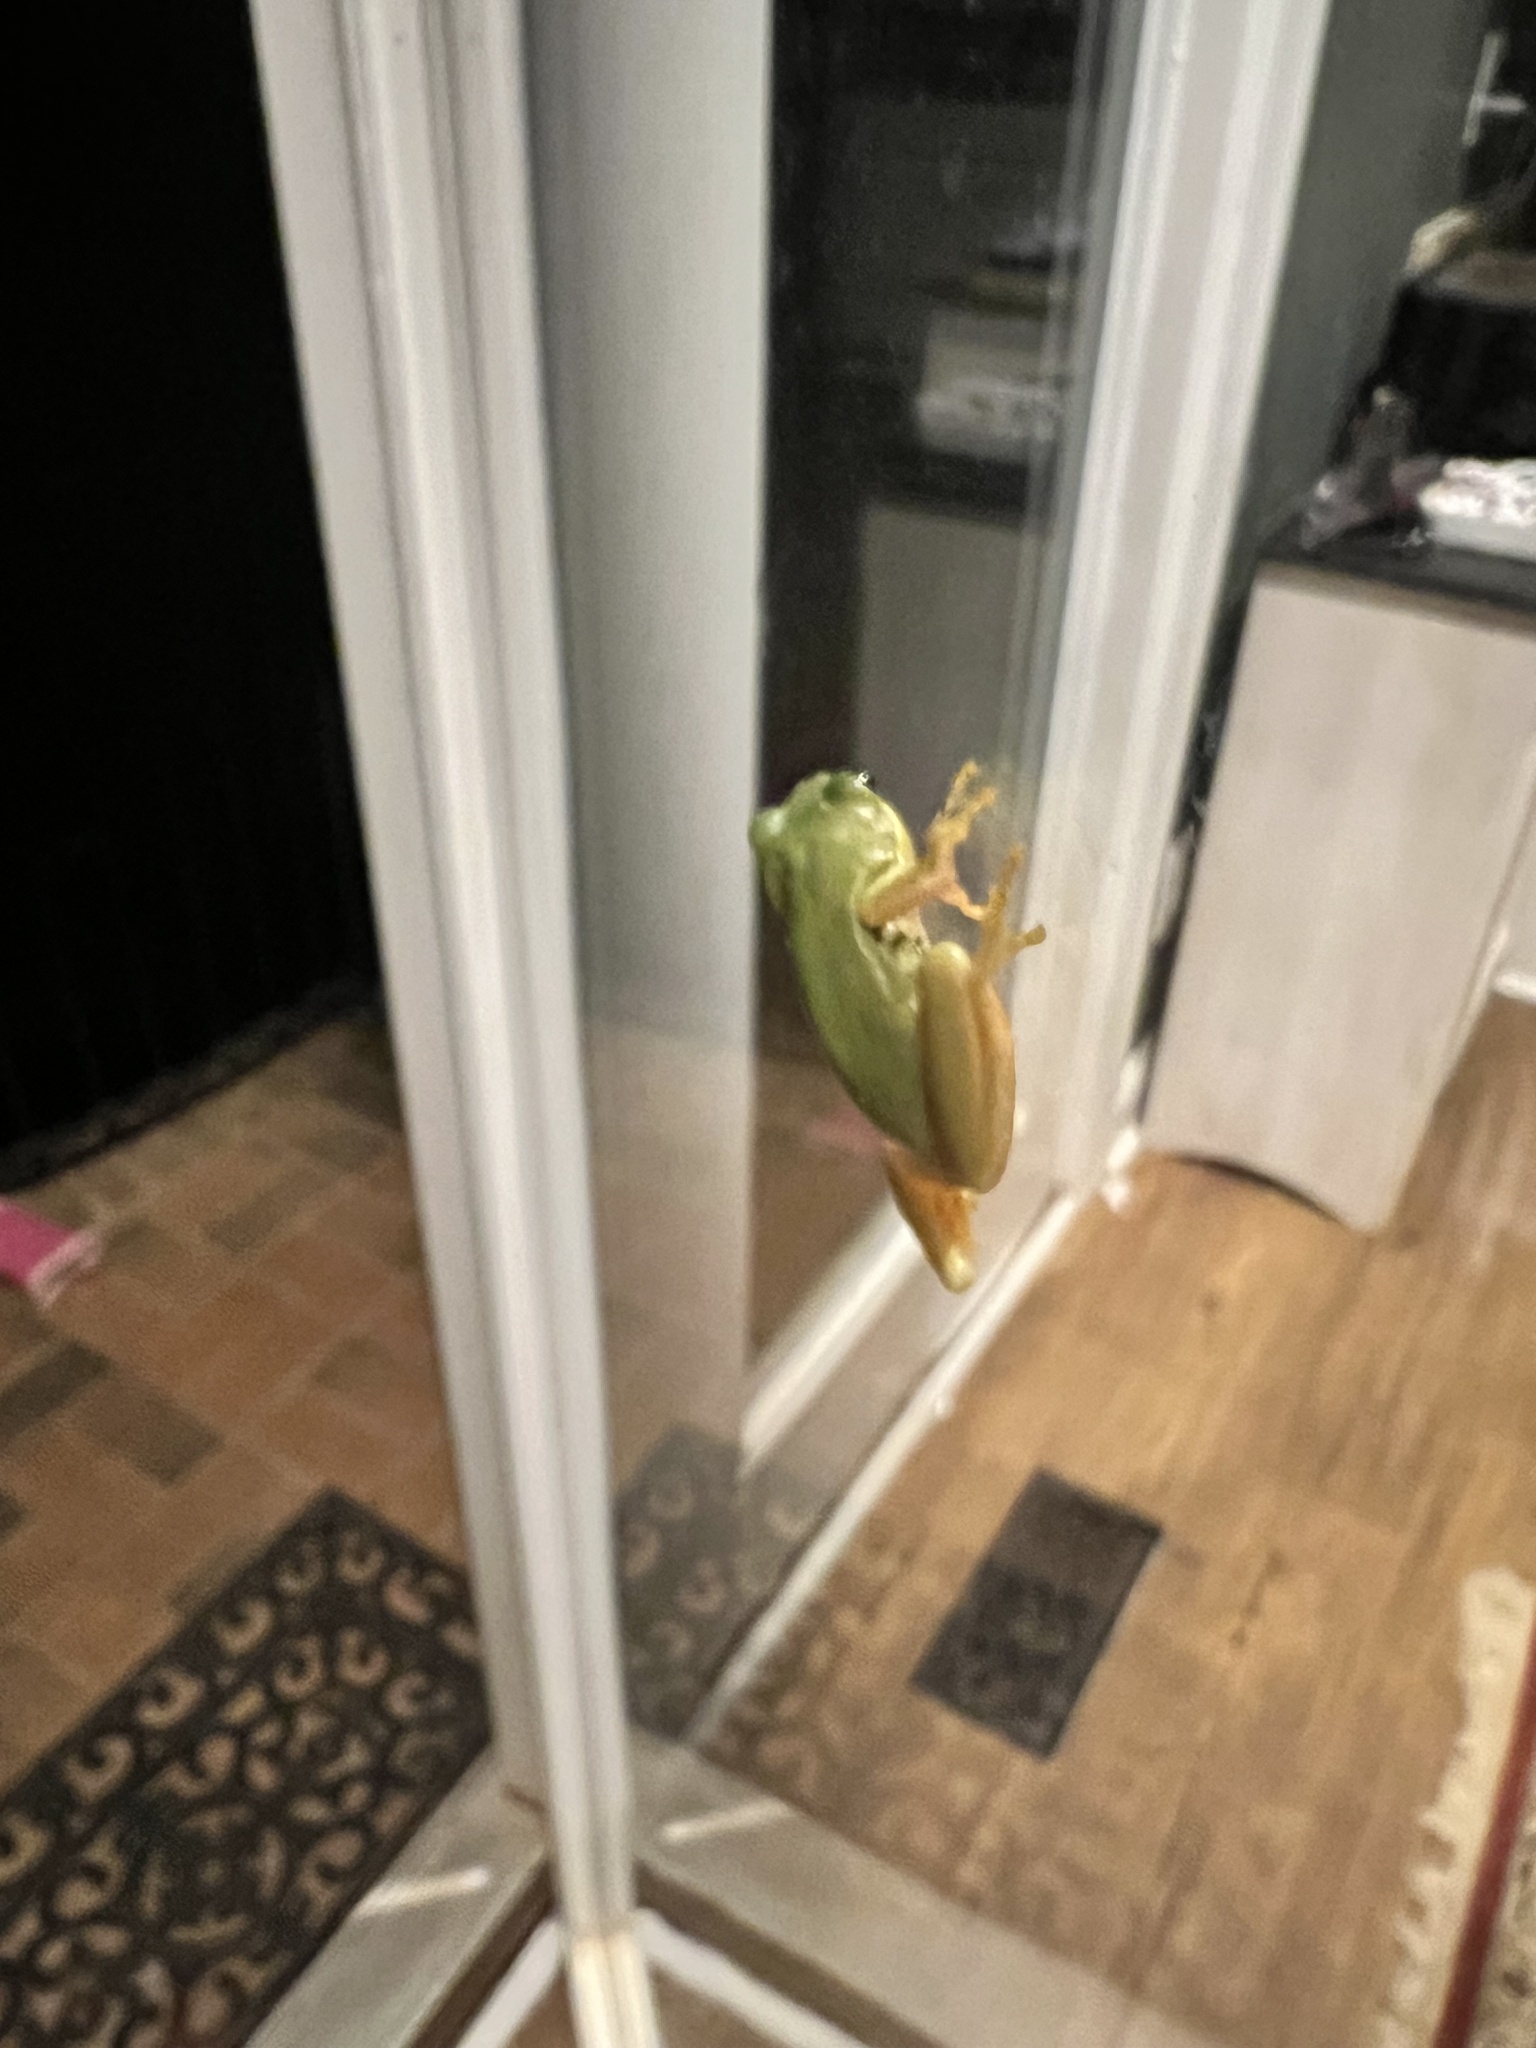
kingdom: Animalia
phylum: Chordata
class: Amphibia
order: Anura
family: Hylidae
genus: Dryophytes
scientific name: Dryophytes squirellus
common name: Squirrel treefrog
